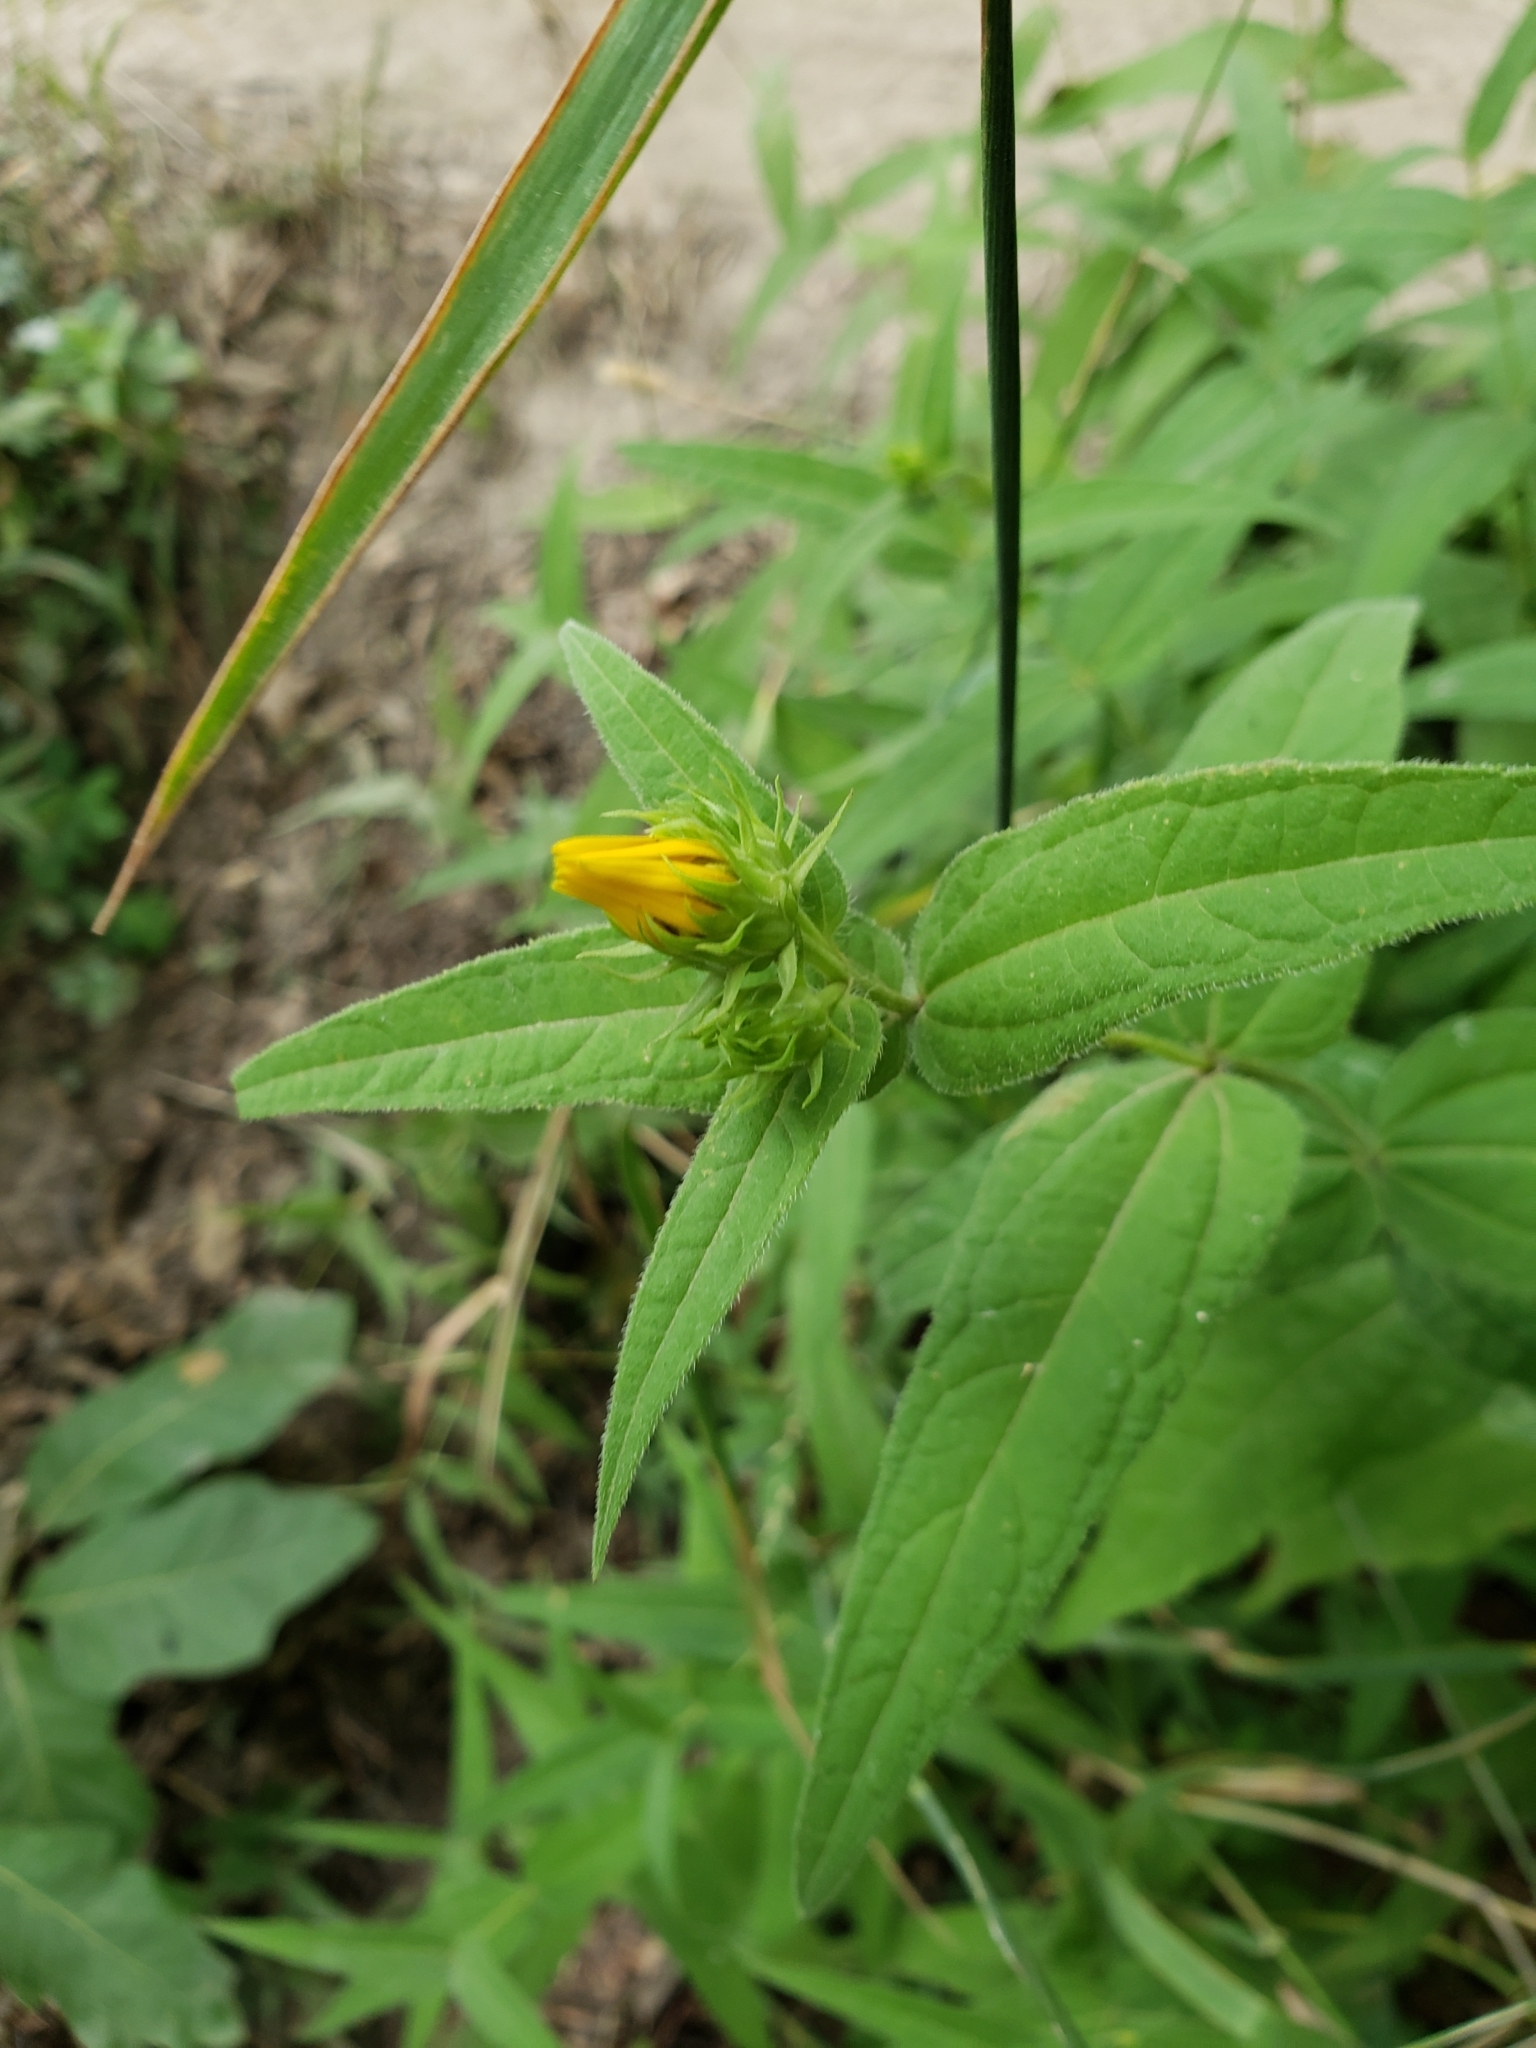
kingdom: Plantae
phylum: Tracheophyta
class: Magnoliopsida
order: Asterales
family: Asteraceae
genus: Helianthus
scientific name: Helianthus divaricatus
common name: Divergent sunflower
